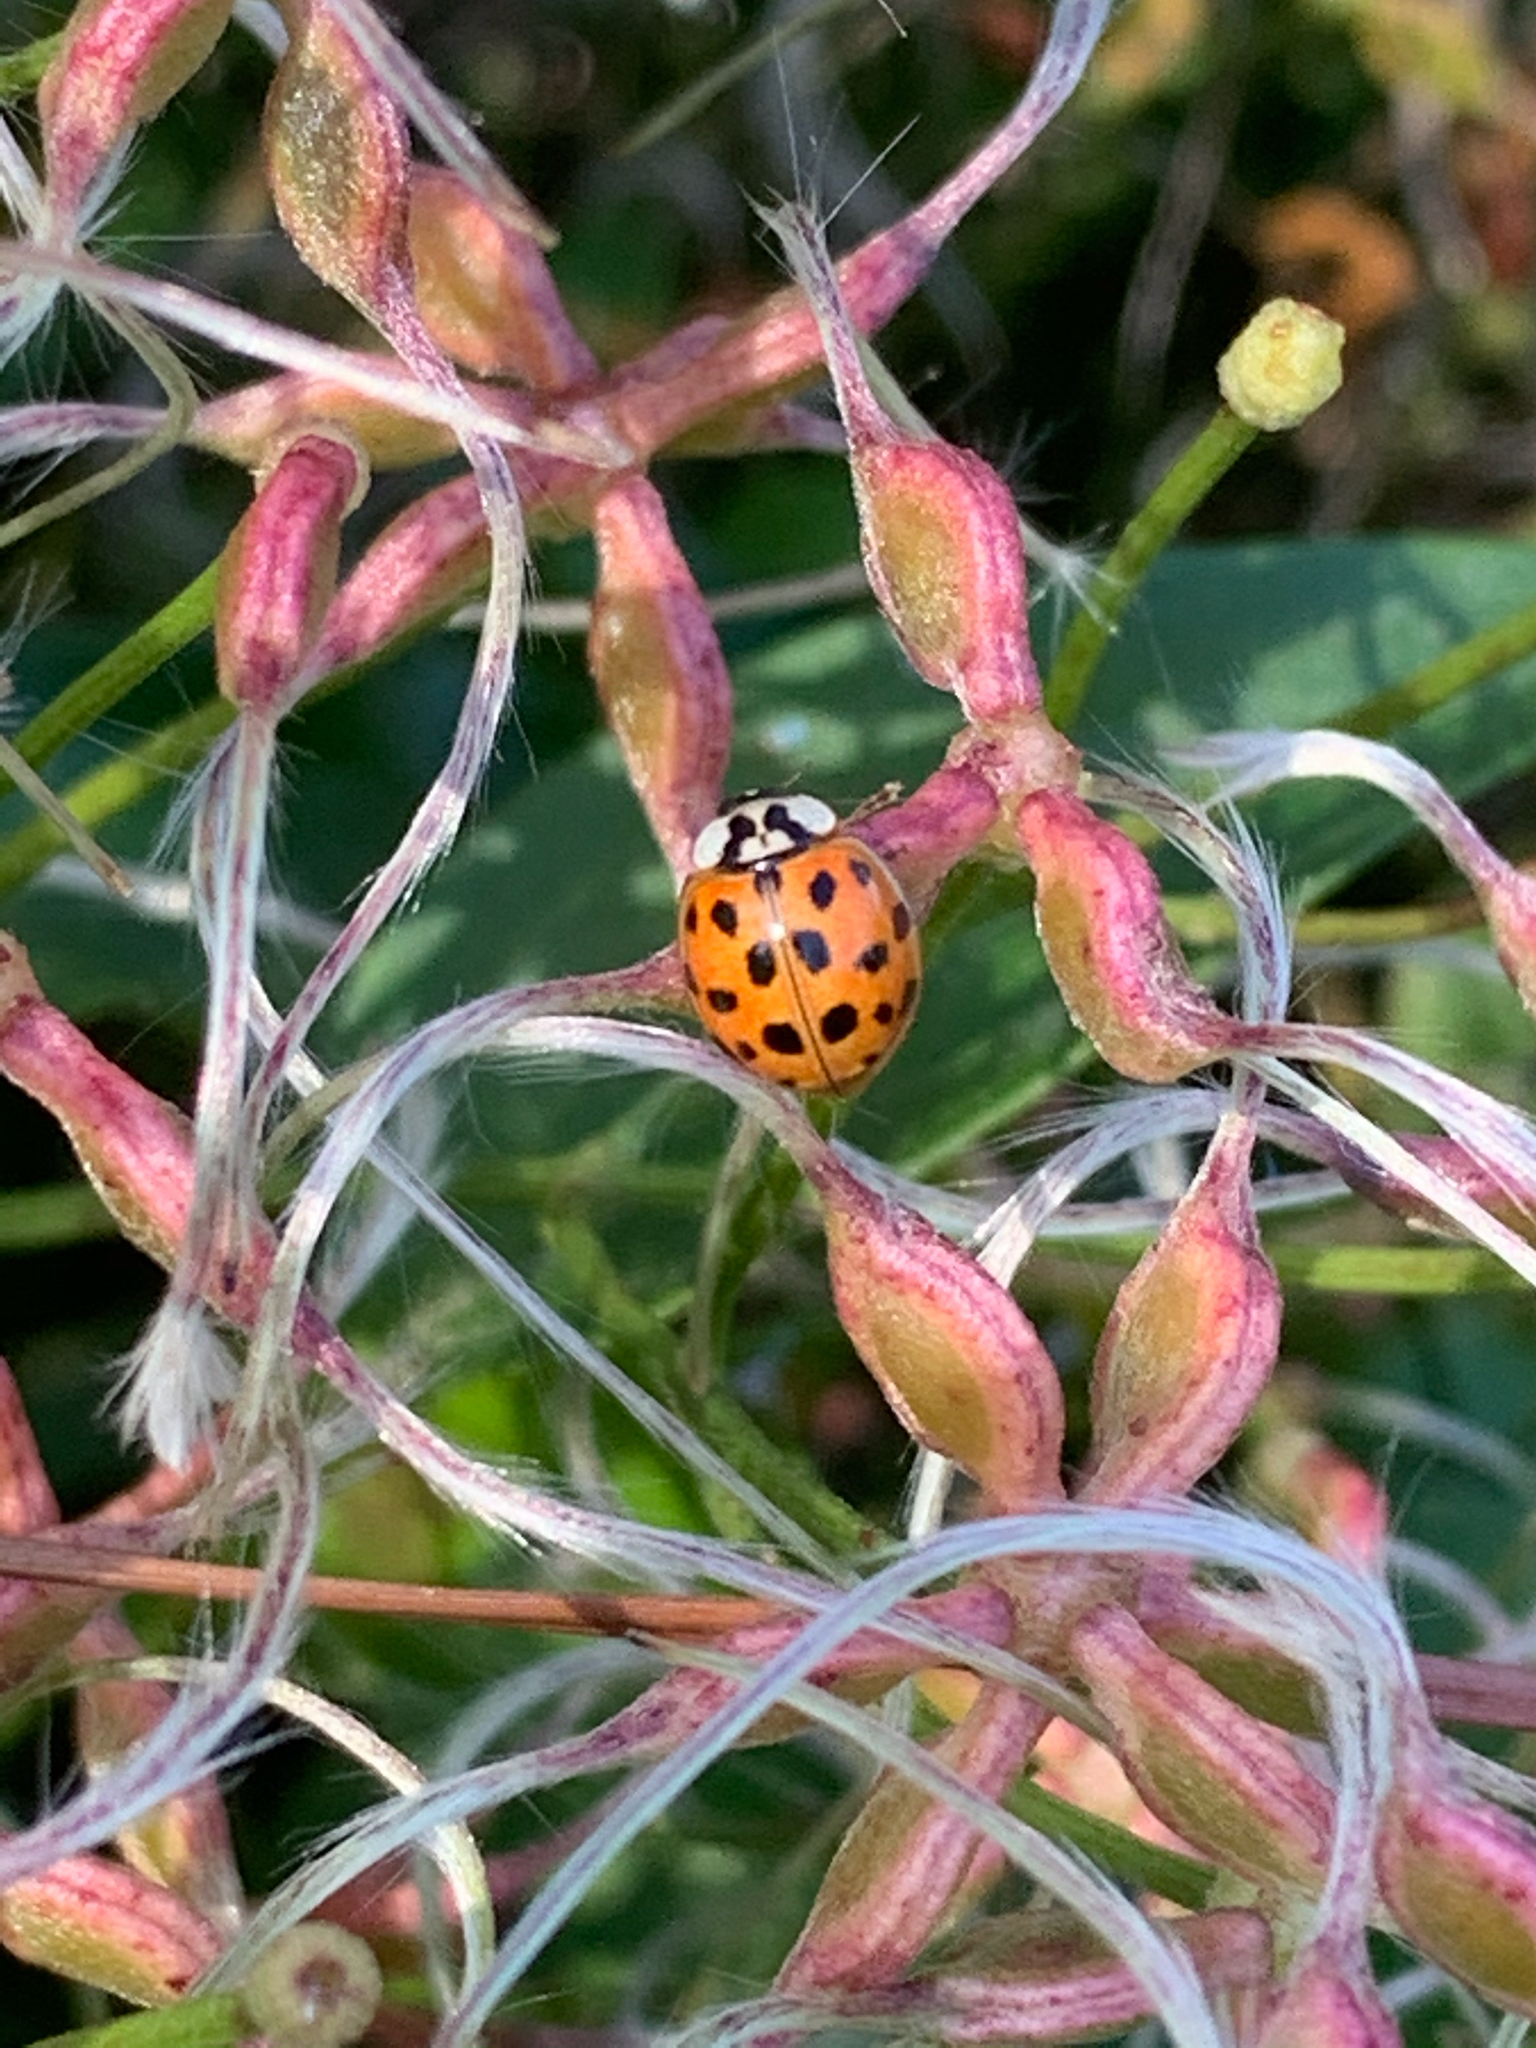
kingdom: Animalia
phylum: Arthropoda
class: Insecta
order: Coleoptera
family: Coccinellidae
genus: Harmonia
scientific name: Harmonia axyridis
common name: Harlequin ladybird
